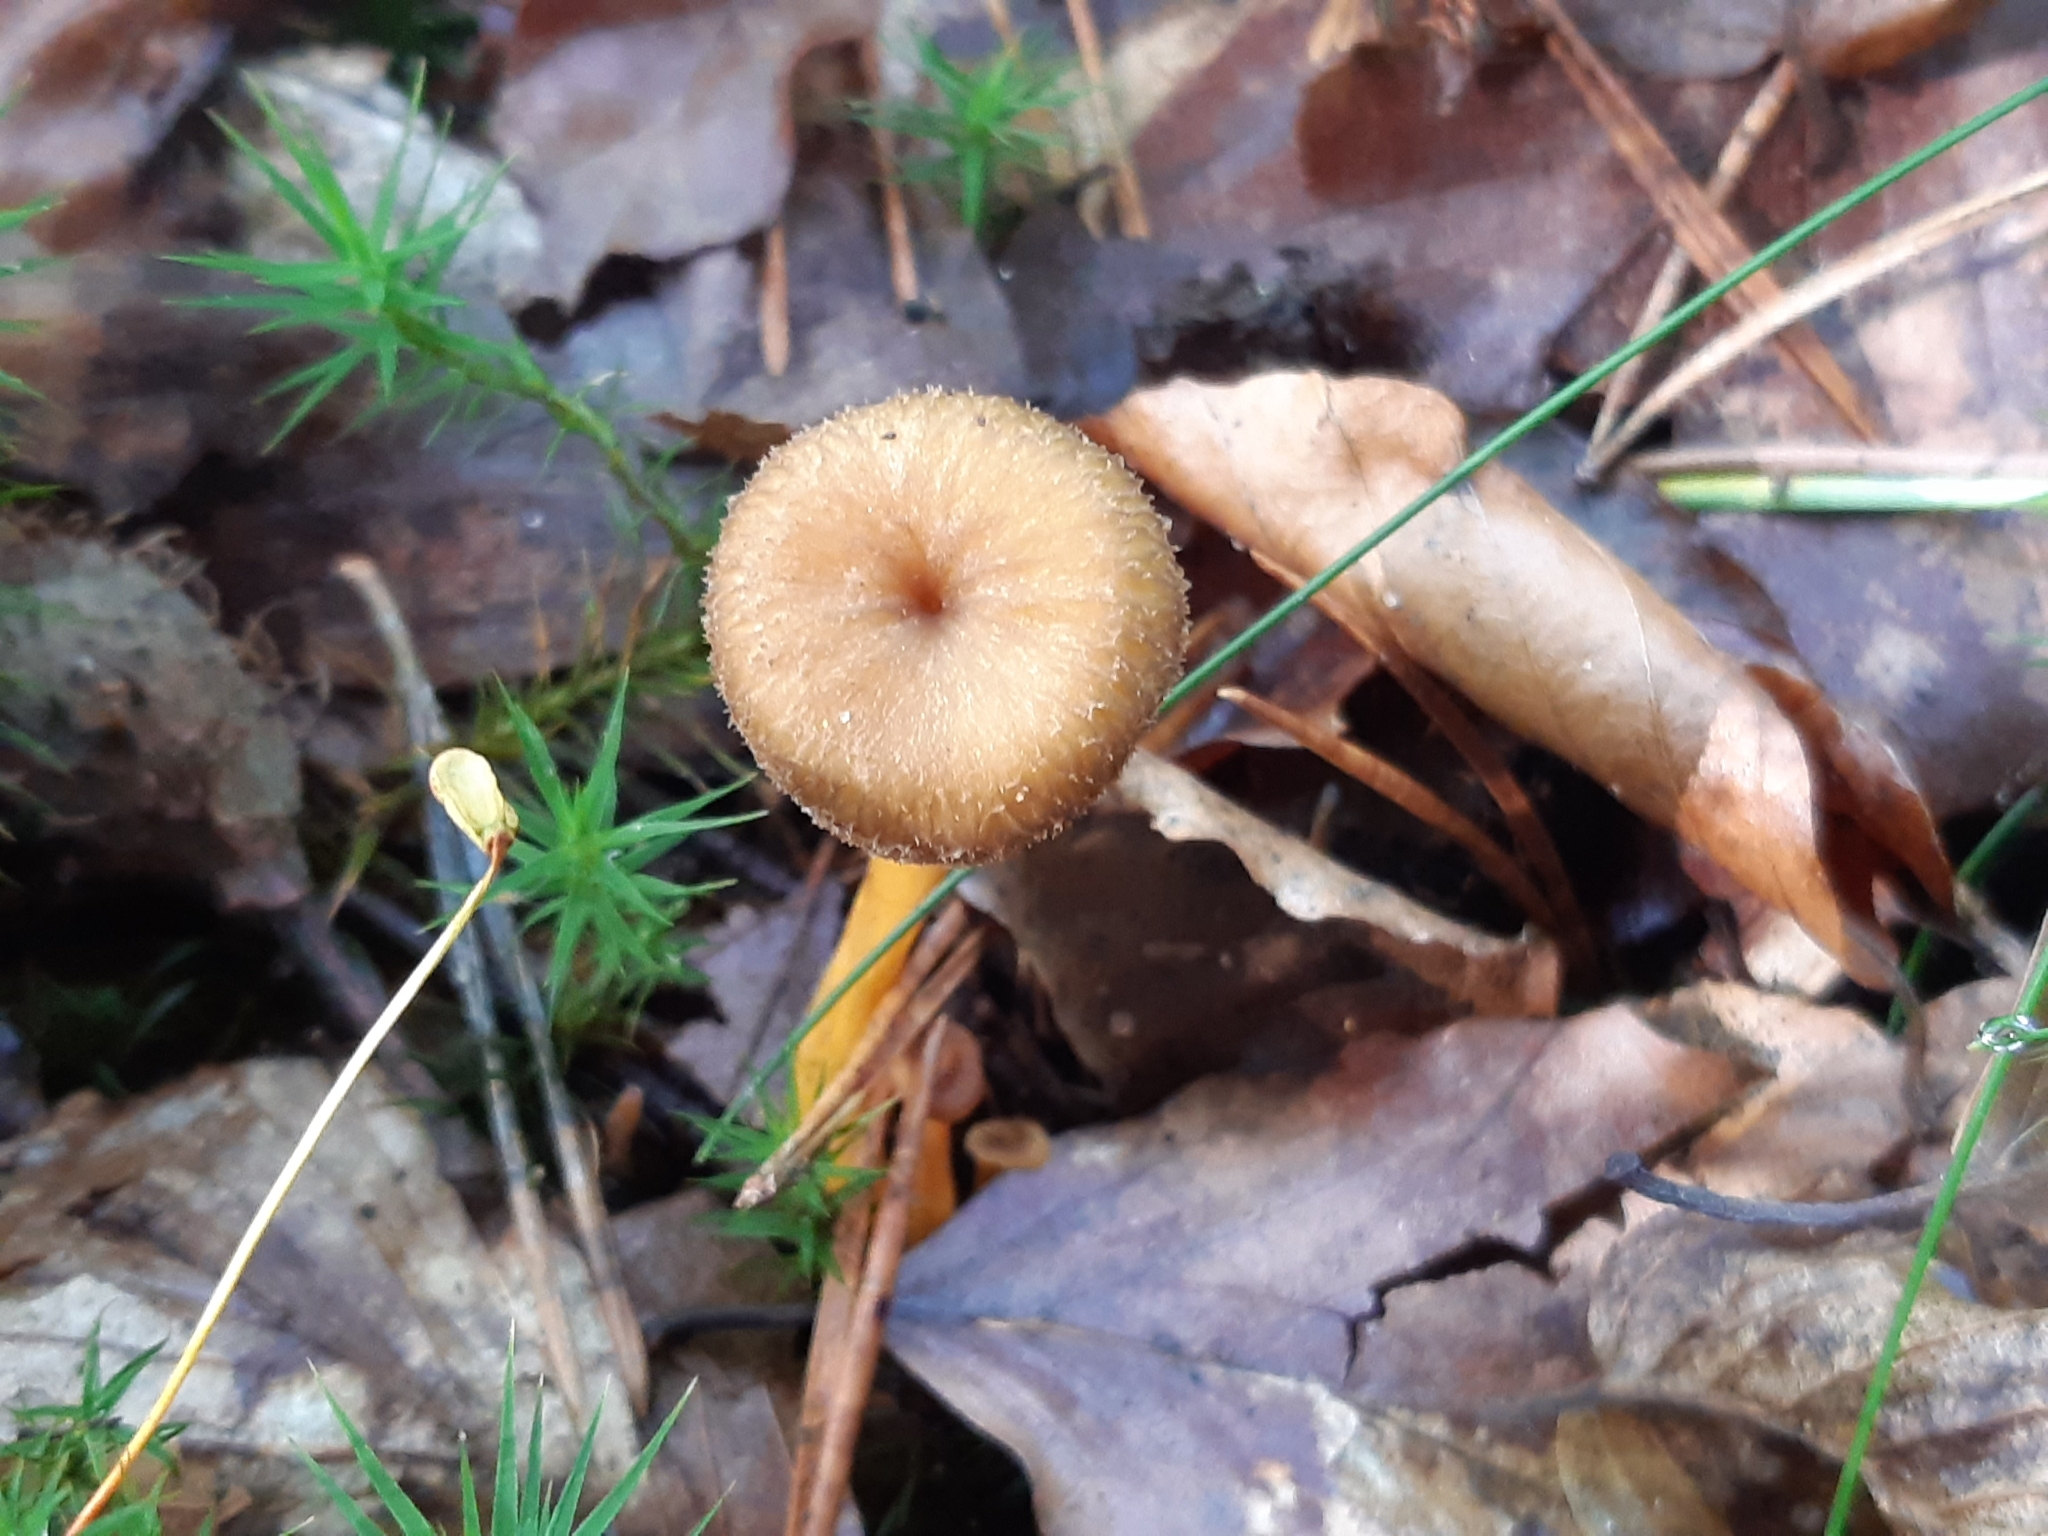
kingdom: Fungi
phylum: Basidiomycota
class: Agaricomycetes
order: Cantharellales
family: Hydnaceae
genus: Craterellus
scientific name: Craterellus tubaeformis
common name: Yellowfoot
